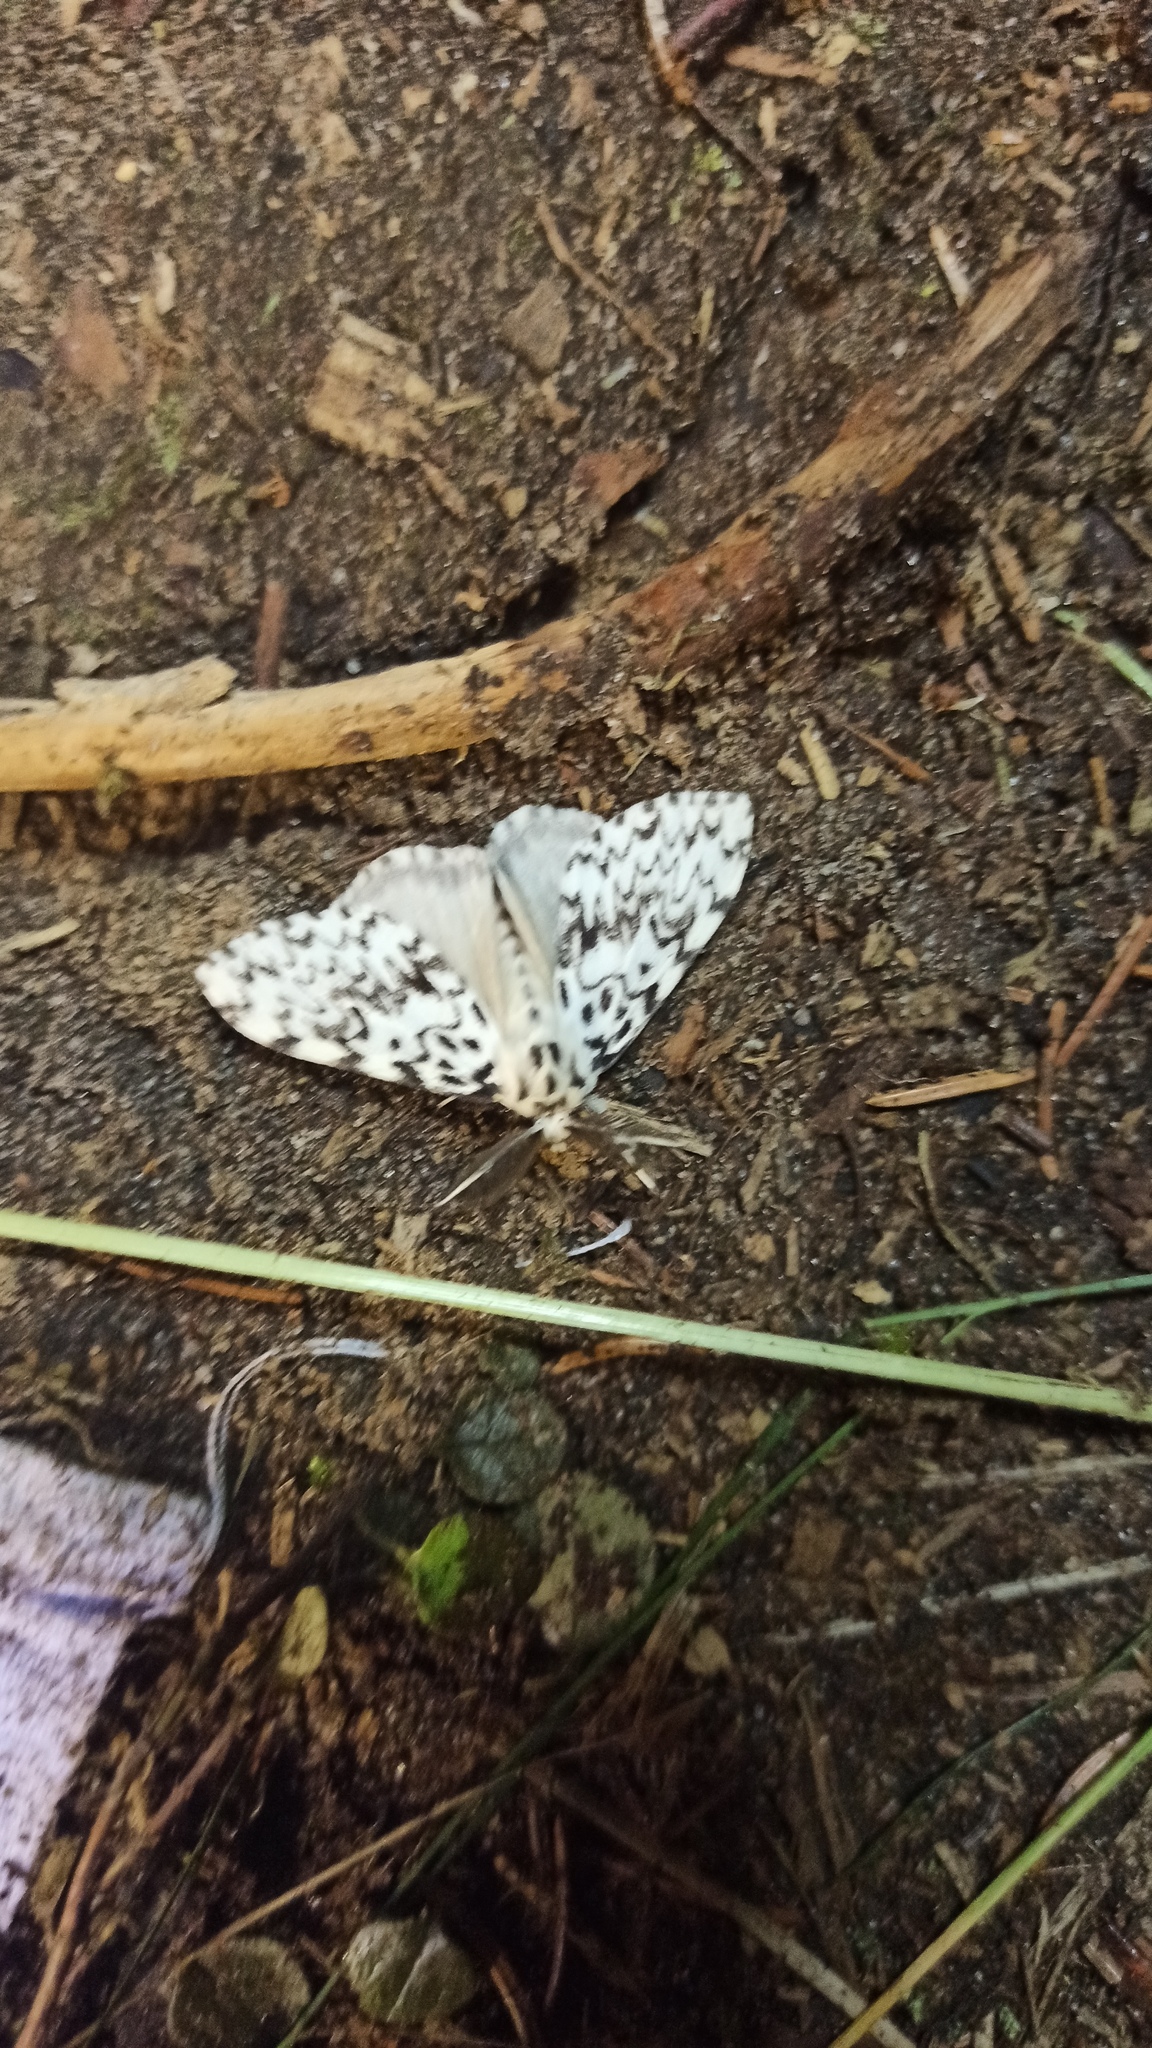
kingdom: Animalia
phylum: Arthropoda
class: Insecta
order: Lepidoptera
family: Erebidae
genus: Lymantria
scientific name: Lymantria monacha
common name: Black arches
